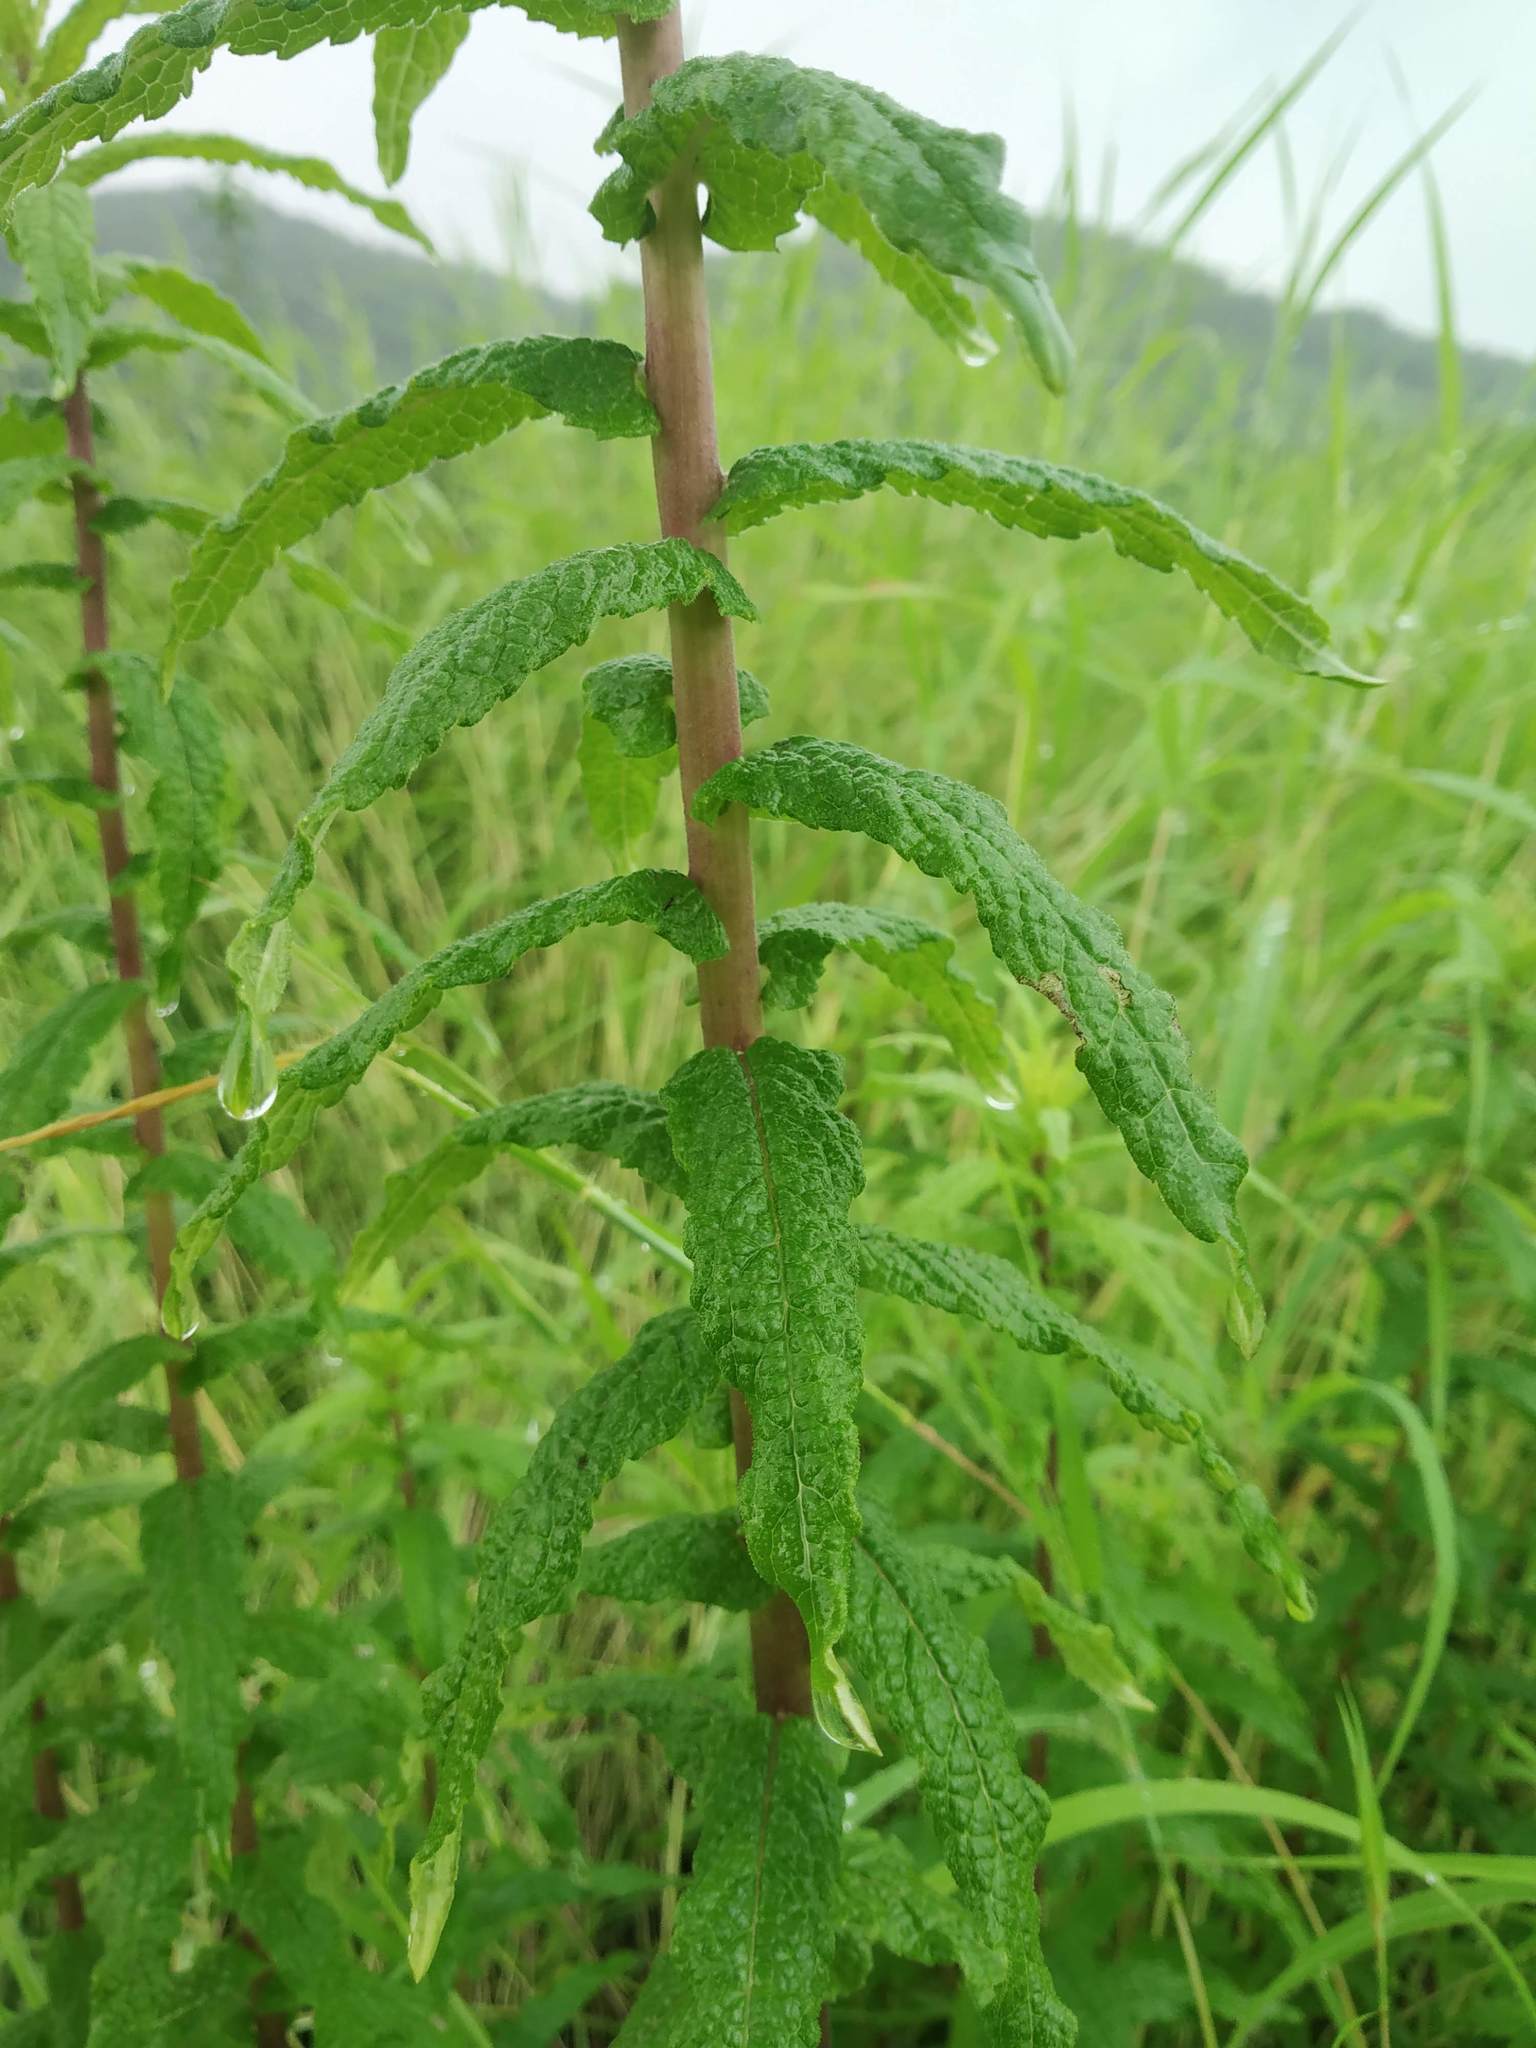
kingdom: Plantae
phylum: Tracheophyta
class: Magnoliopsida
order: Asterales
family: Asteraceae
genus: Vicoa
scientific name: Vicoa indica
